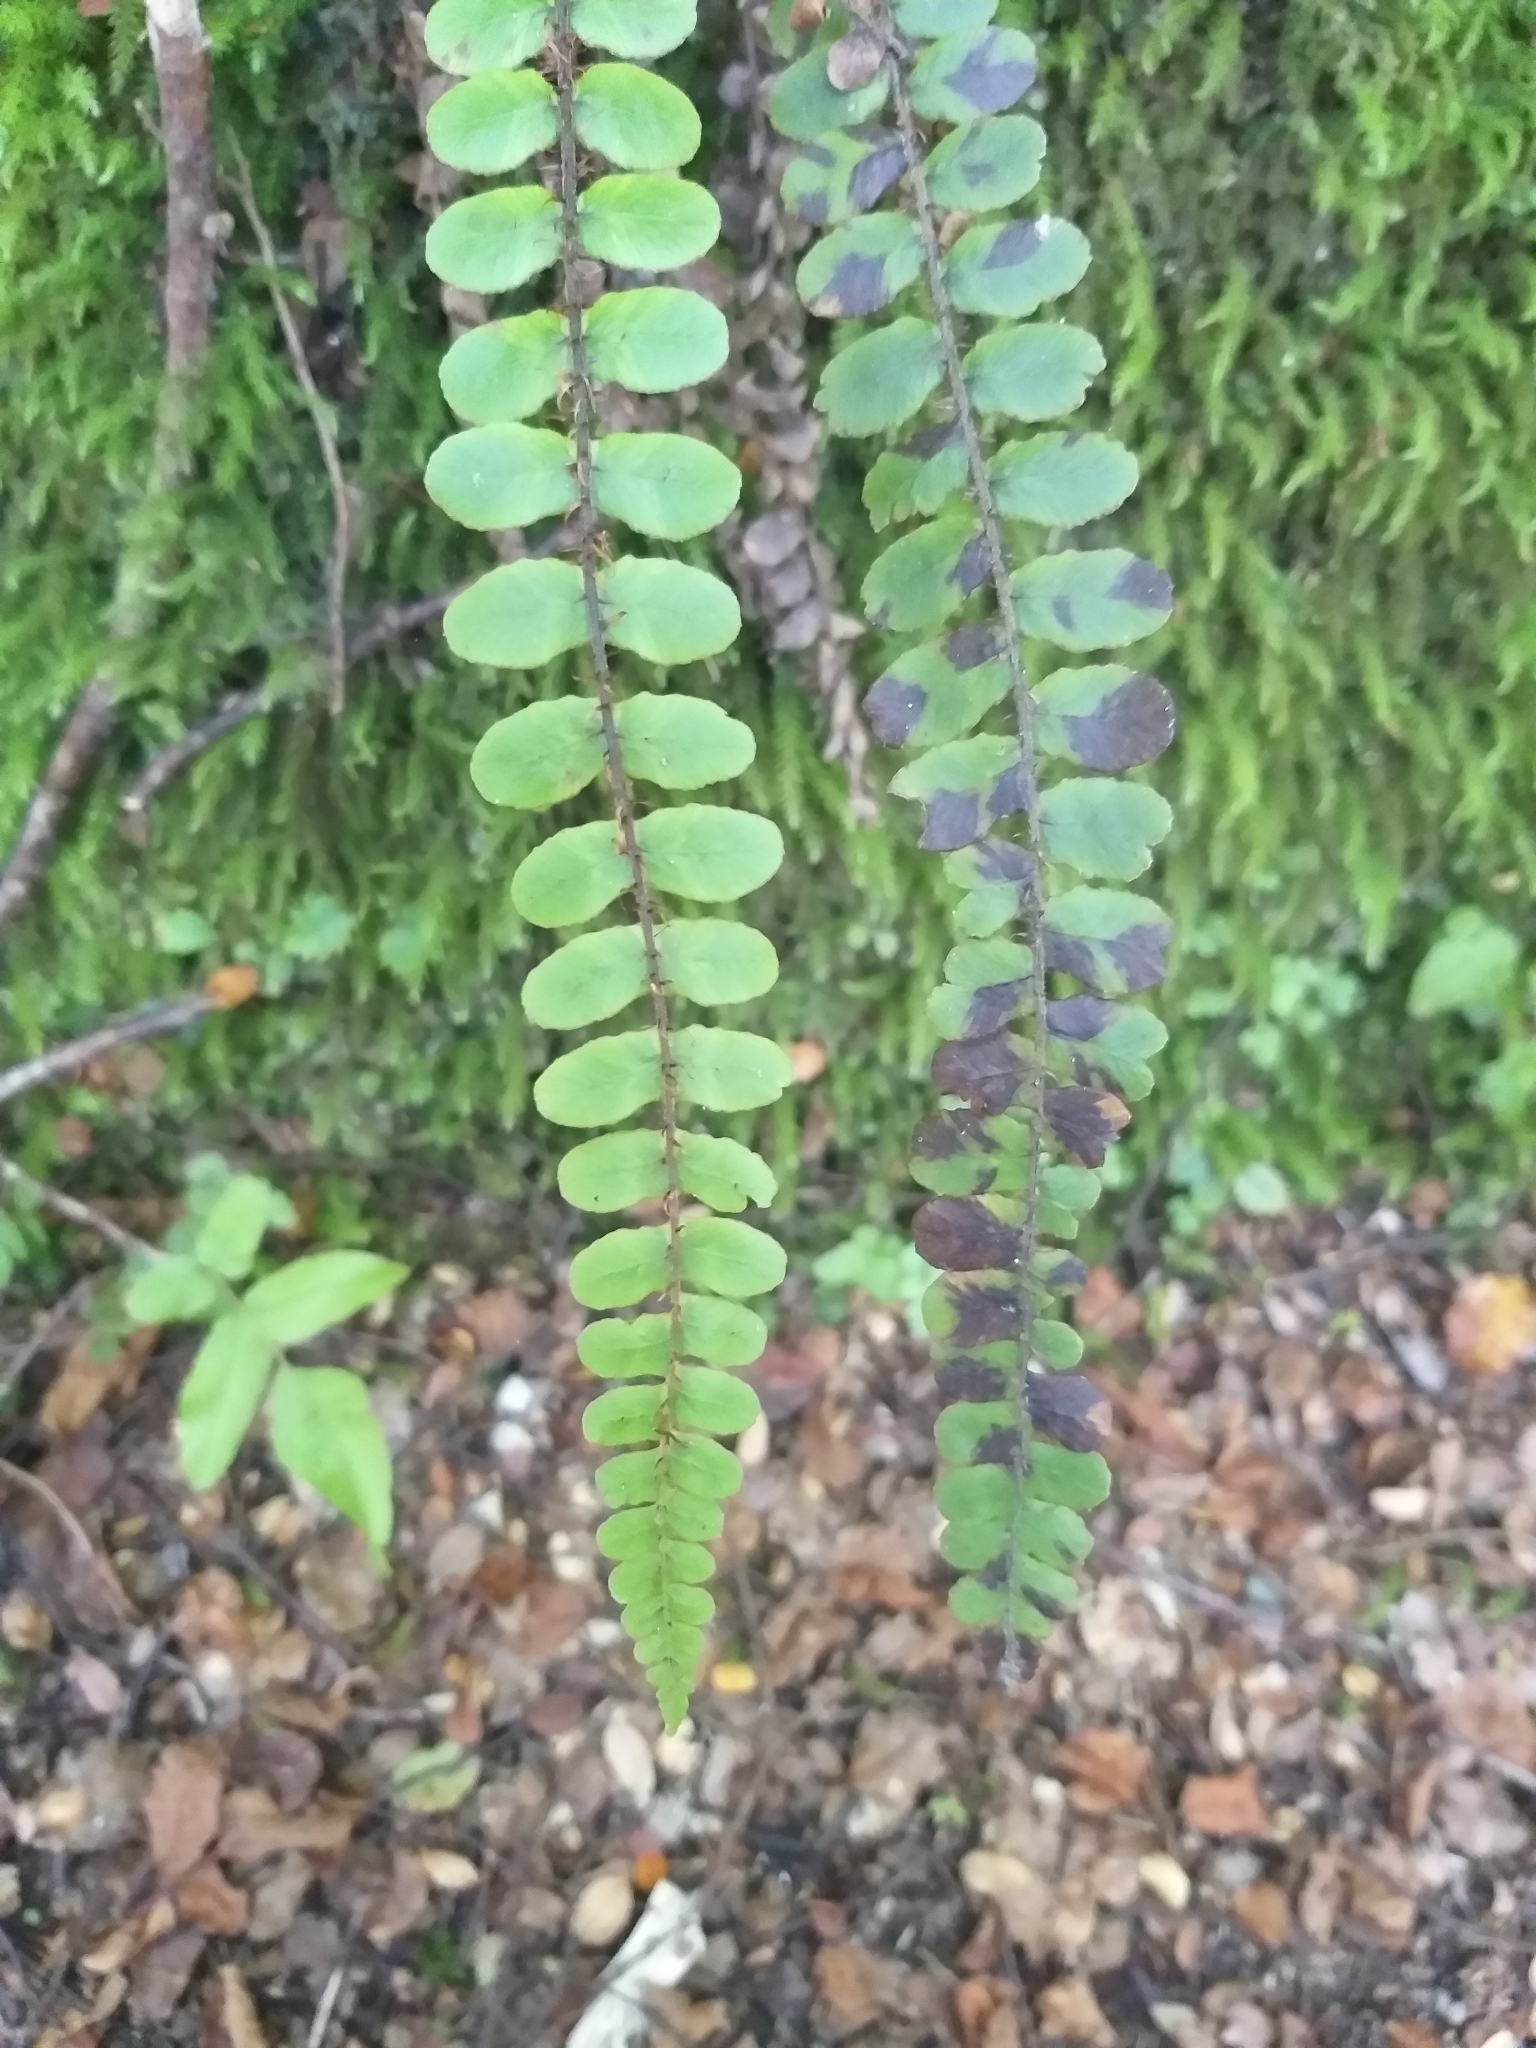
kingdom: Plantae
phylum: Tracheophyta
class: Polypodiopsida
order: Polypodiales
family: Blechnaceae
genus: Cranfillia
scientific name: Cranfillia fluviatilis
